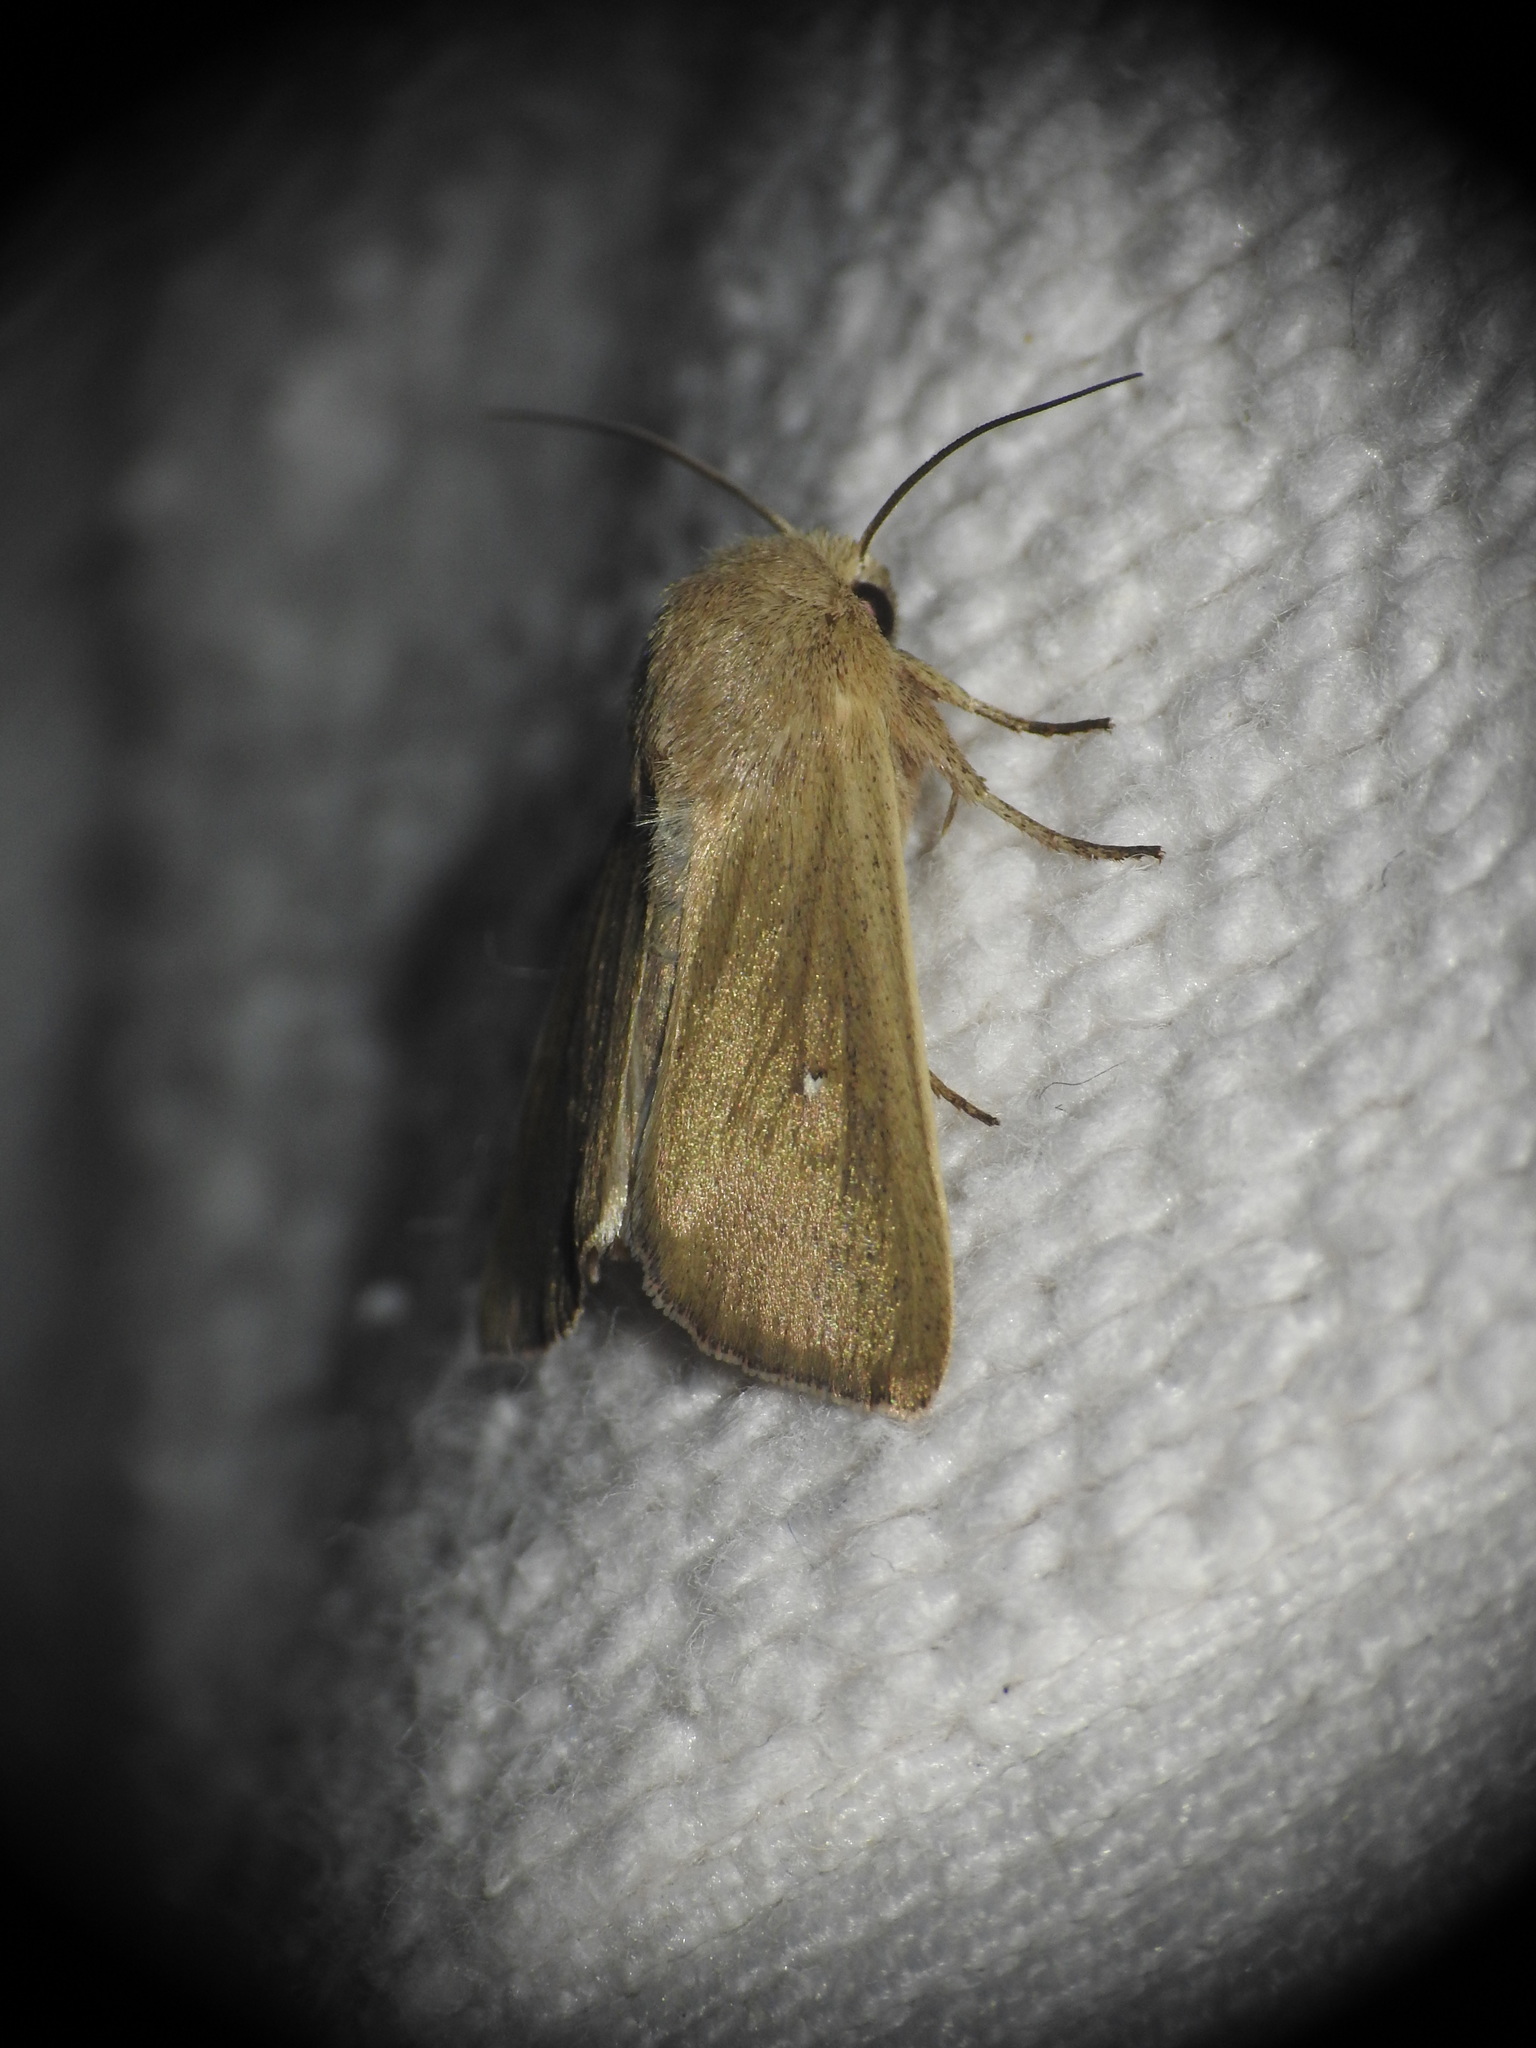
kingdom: Animalia
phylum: Arthropoda
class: Insecta
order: Lepidoptera
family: Noctuidae
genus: Mythimna
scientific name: Mythimna sicula
